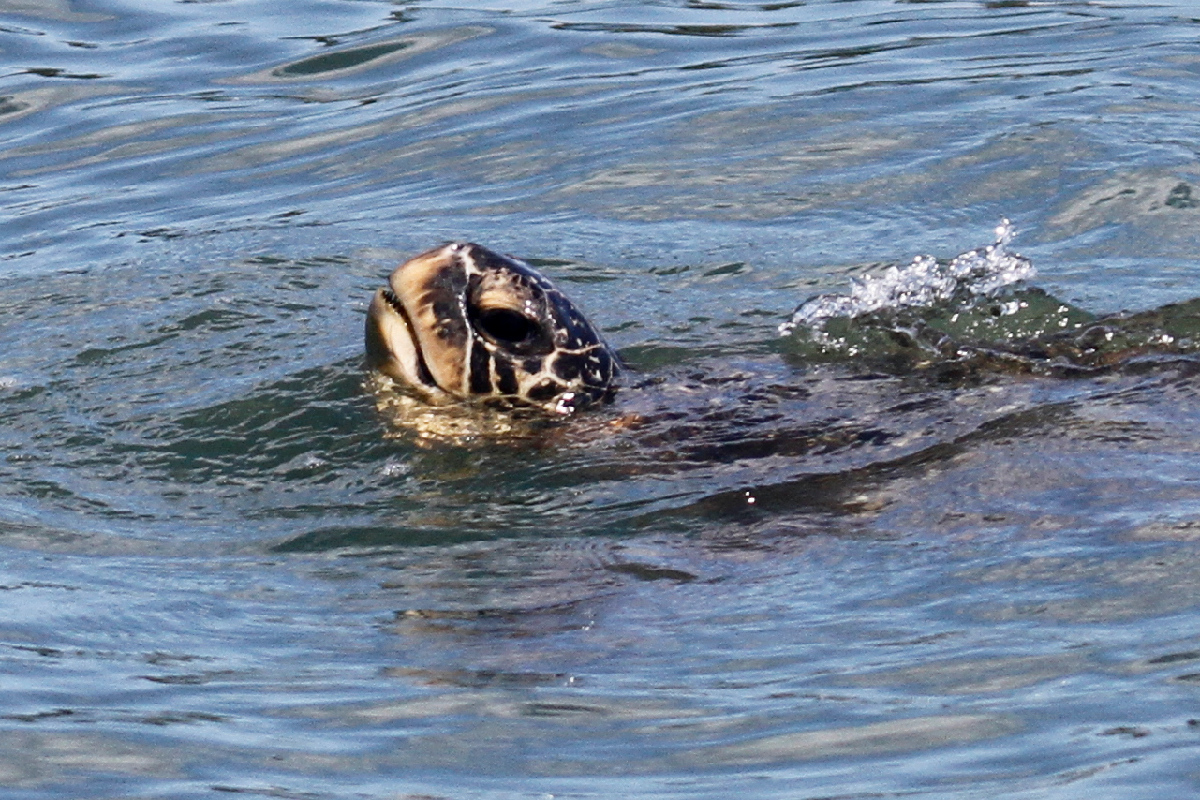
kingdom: Animalia
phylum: Chordata
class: Testudines
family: Cheloniidae
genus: Chelonia
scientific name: Chelonia mydas
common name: Green turtle
